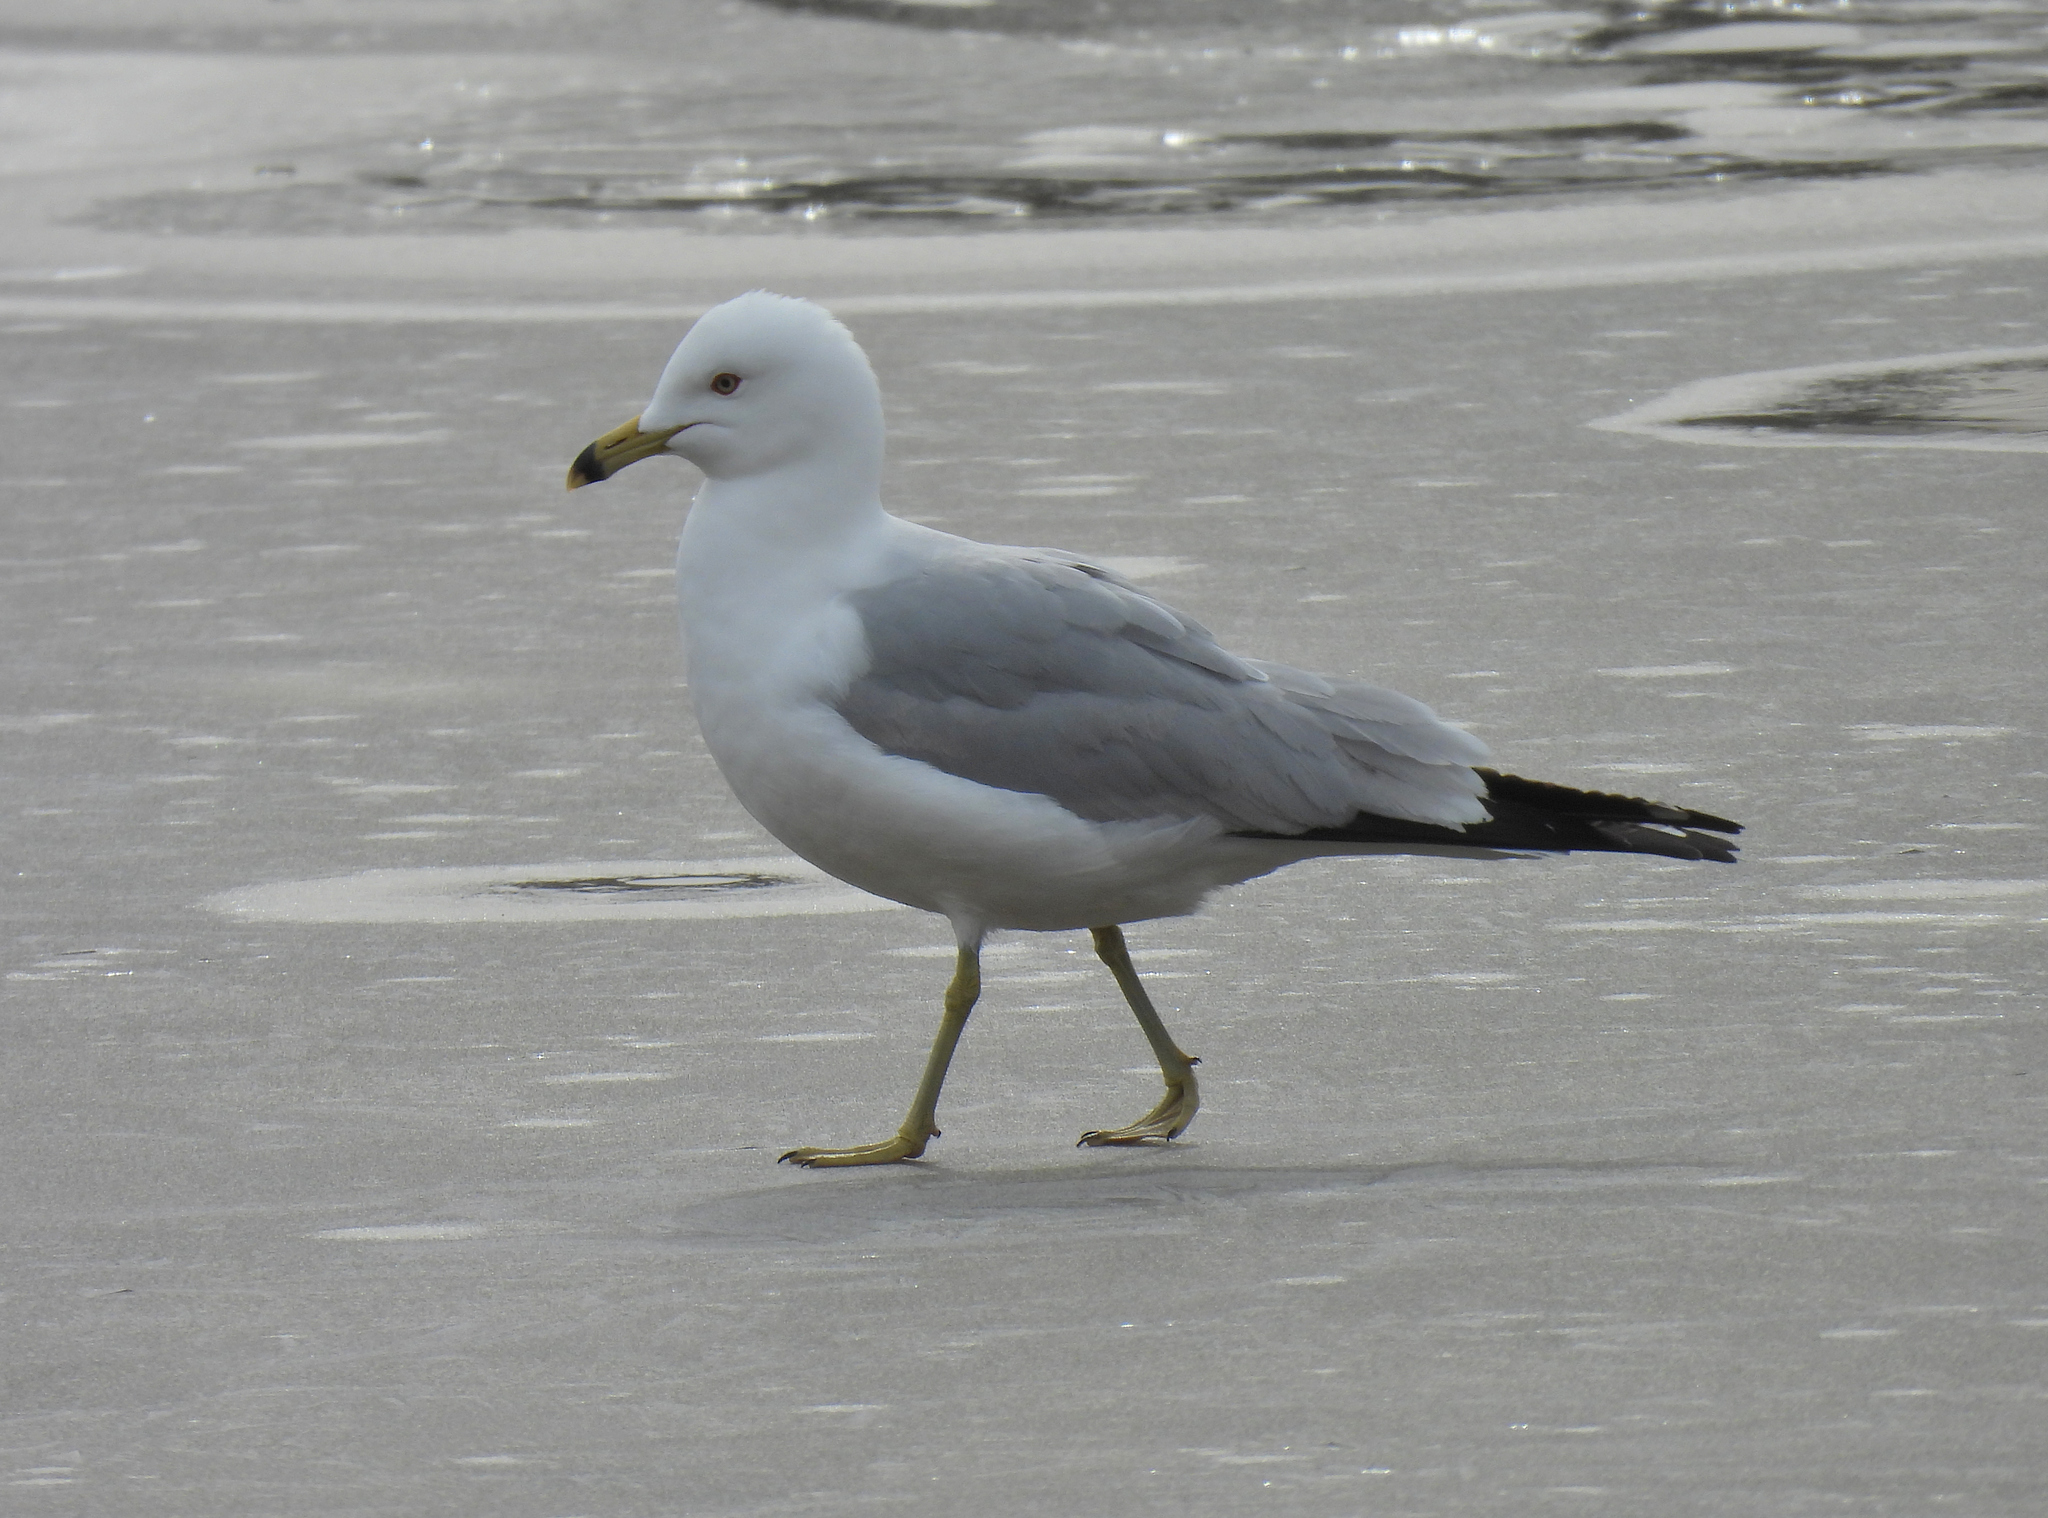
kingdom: Animalia
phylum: Chordata
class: Aves
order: Charadriiformes
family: Laridae
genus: Larus
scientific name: Larus delawarensis
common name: Ring-billed gull
